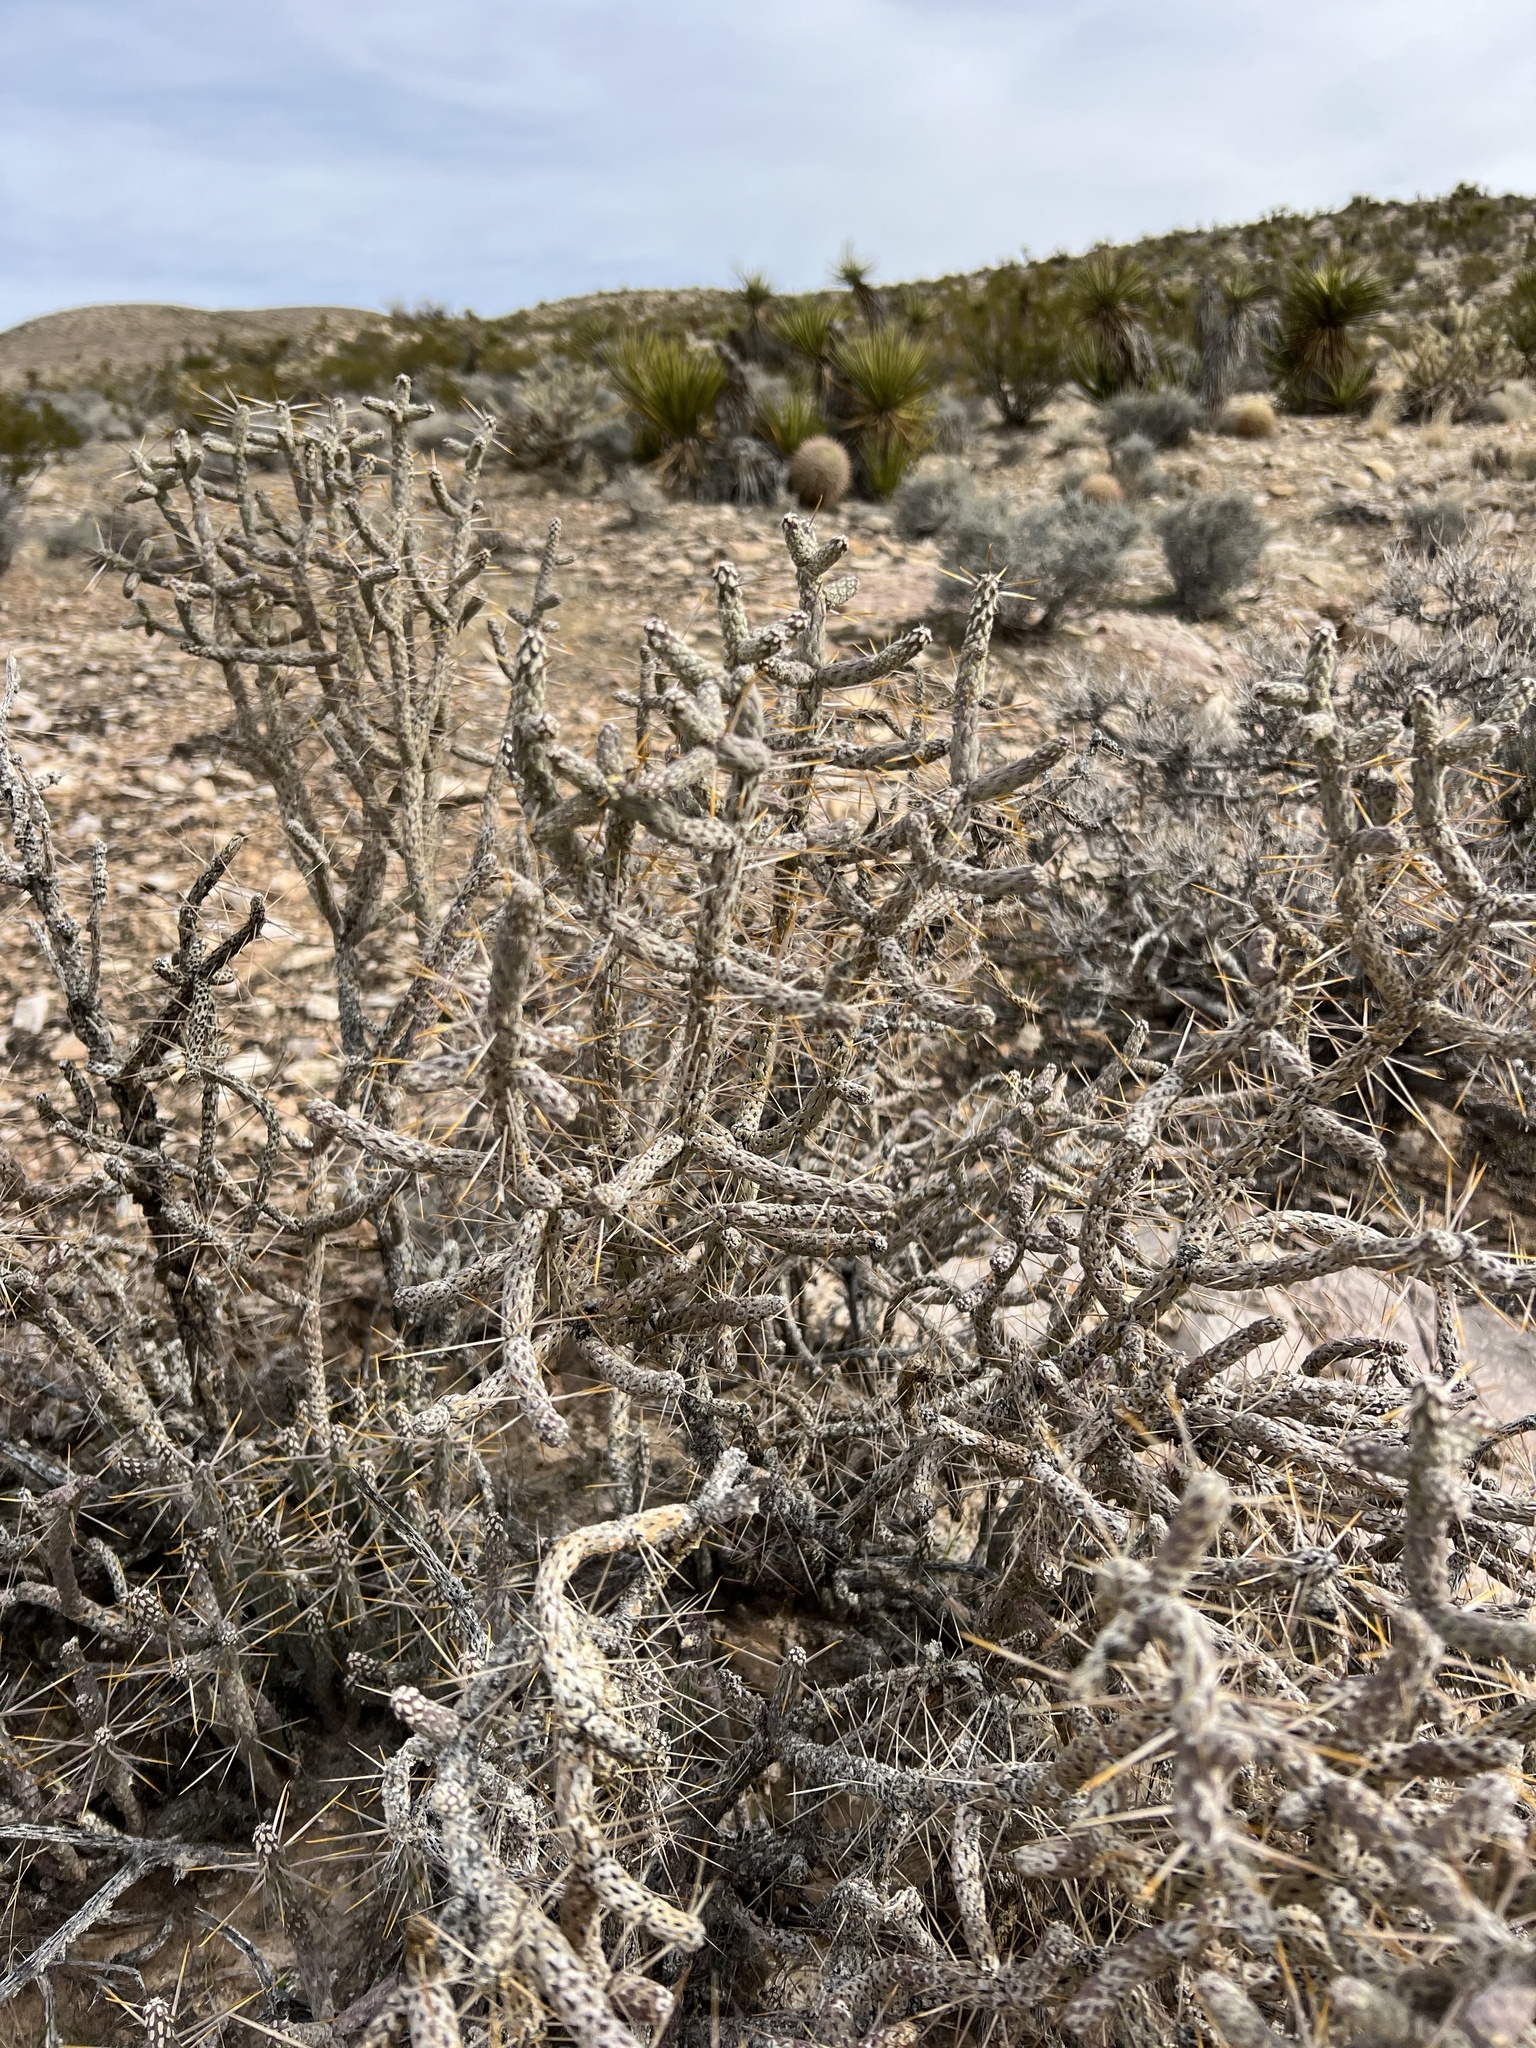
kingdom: Plantae
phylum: Tracheophyta
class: Magnoliopsida
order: Caryophyllales
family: Cactaceae
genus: Cylindropuntia
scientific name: Cylindropuntia ramosissima
